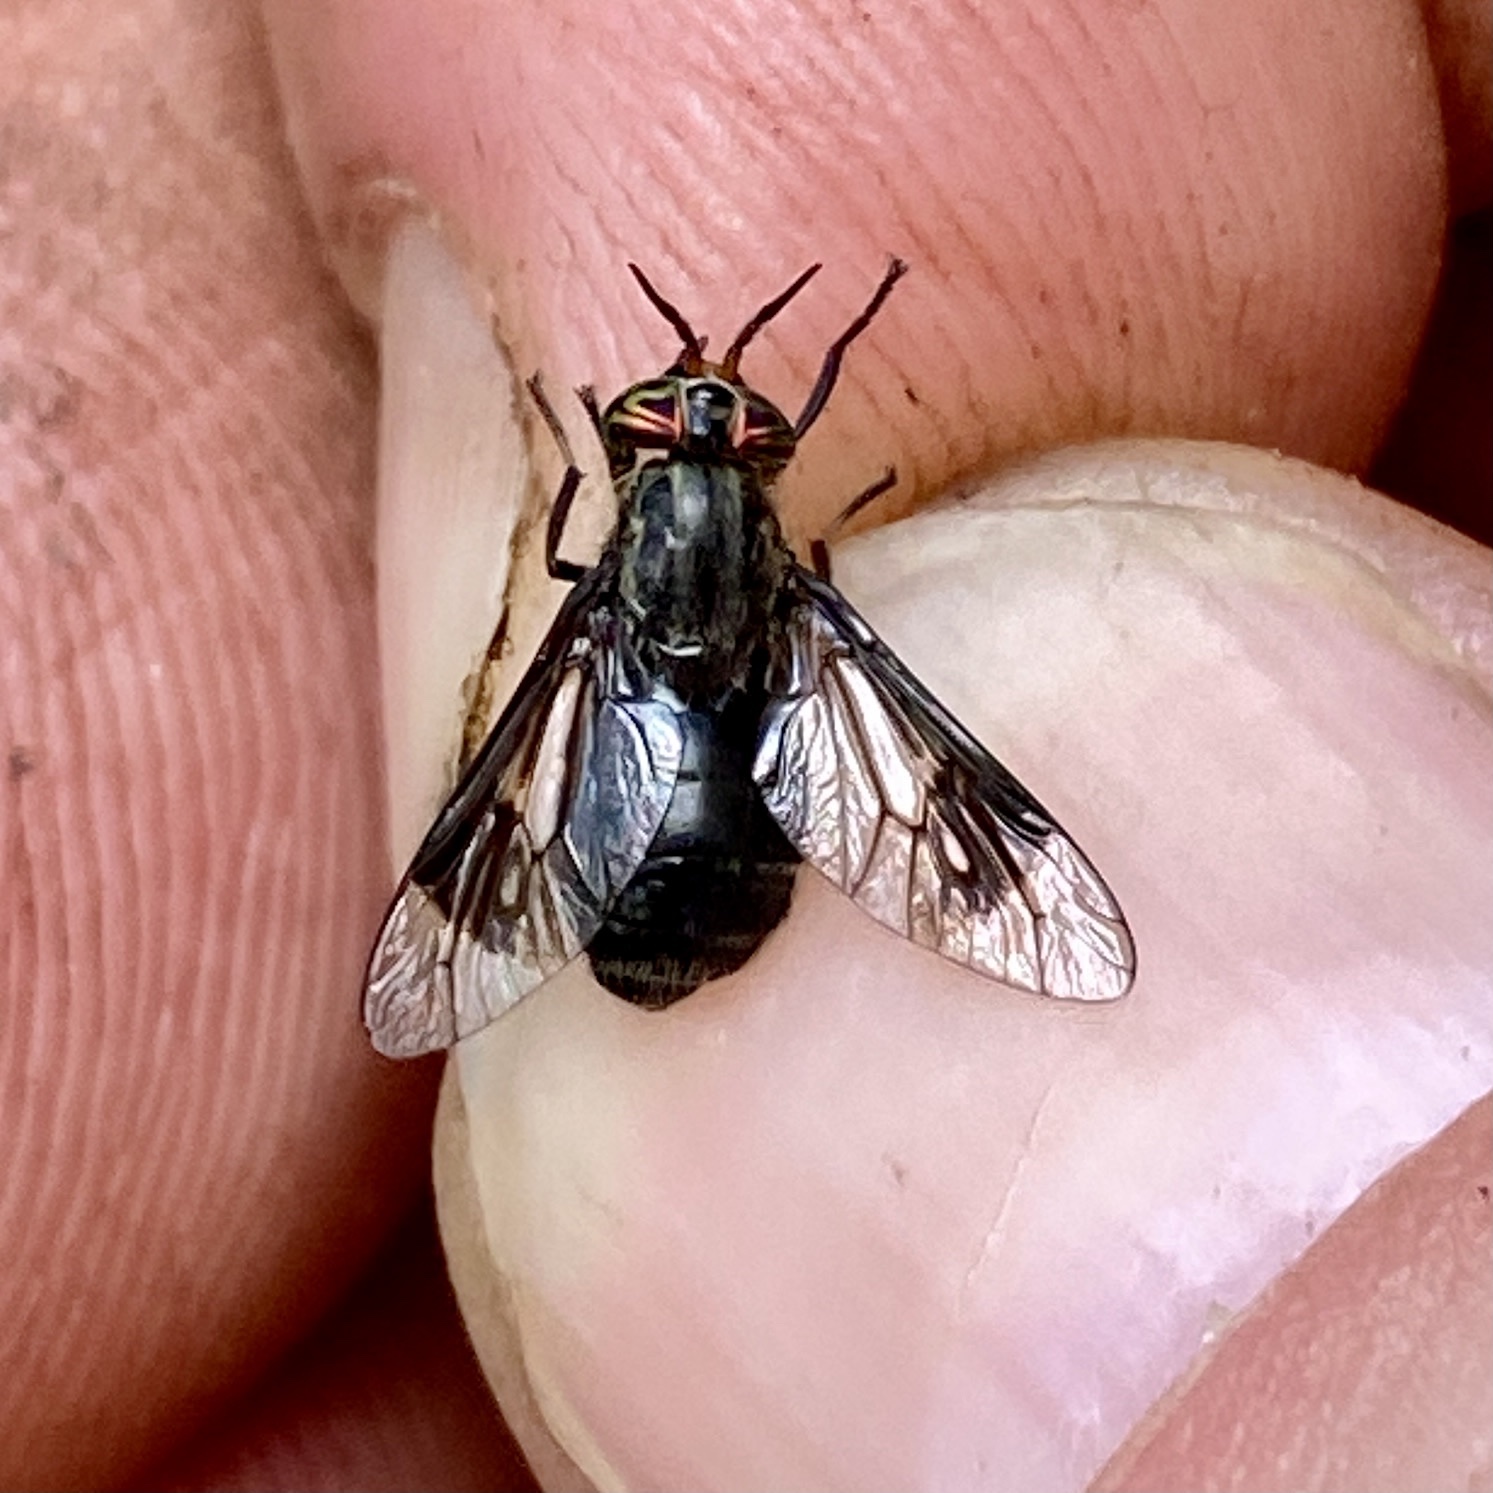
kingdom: Animalia
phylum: Arthropoda
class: Insecta
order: Diptera
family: Tabanidae
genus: Chrysops
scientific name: Chrysops niger
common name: Black deer fly
